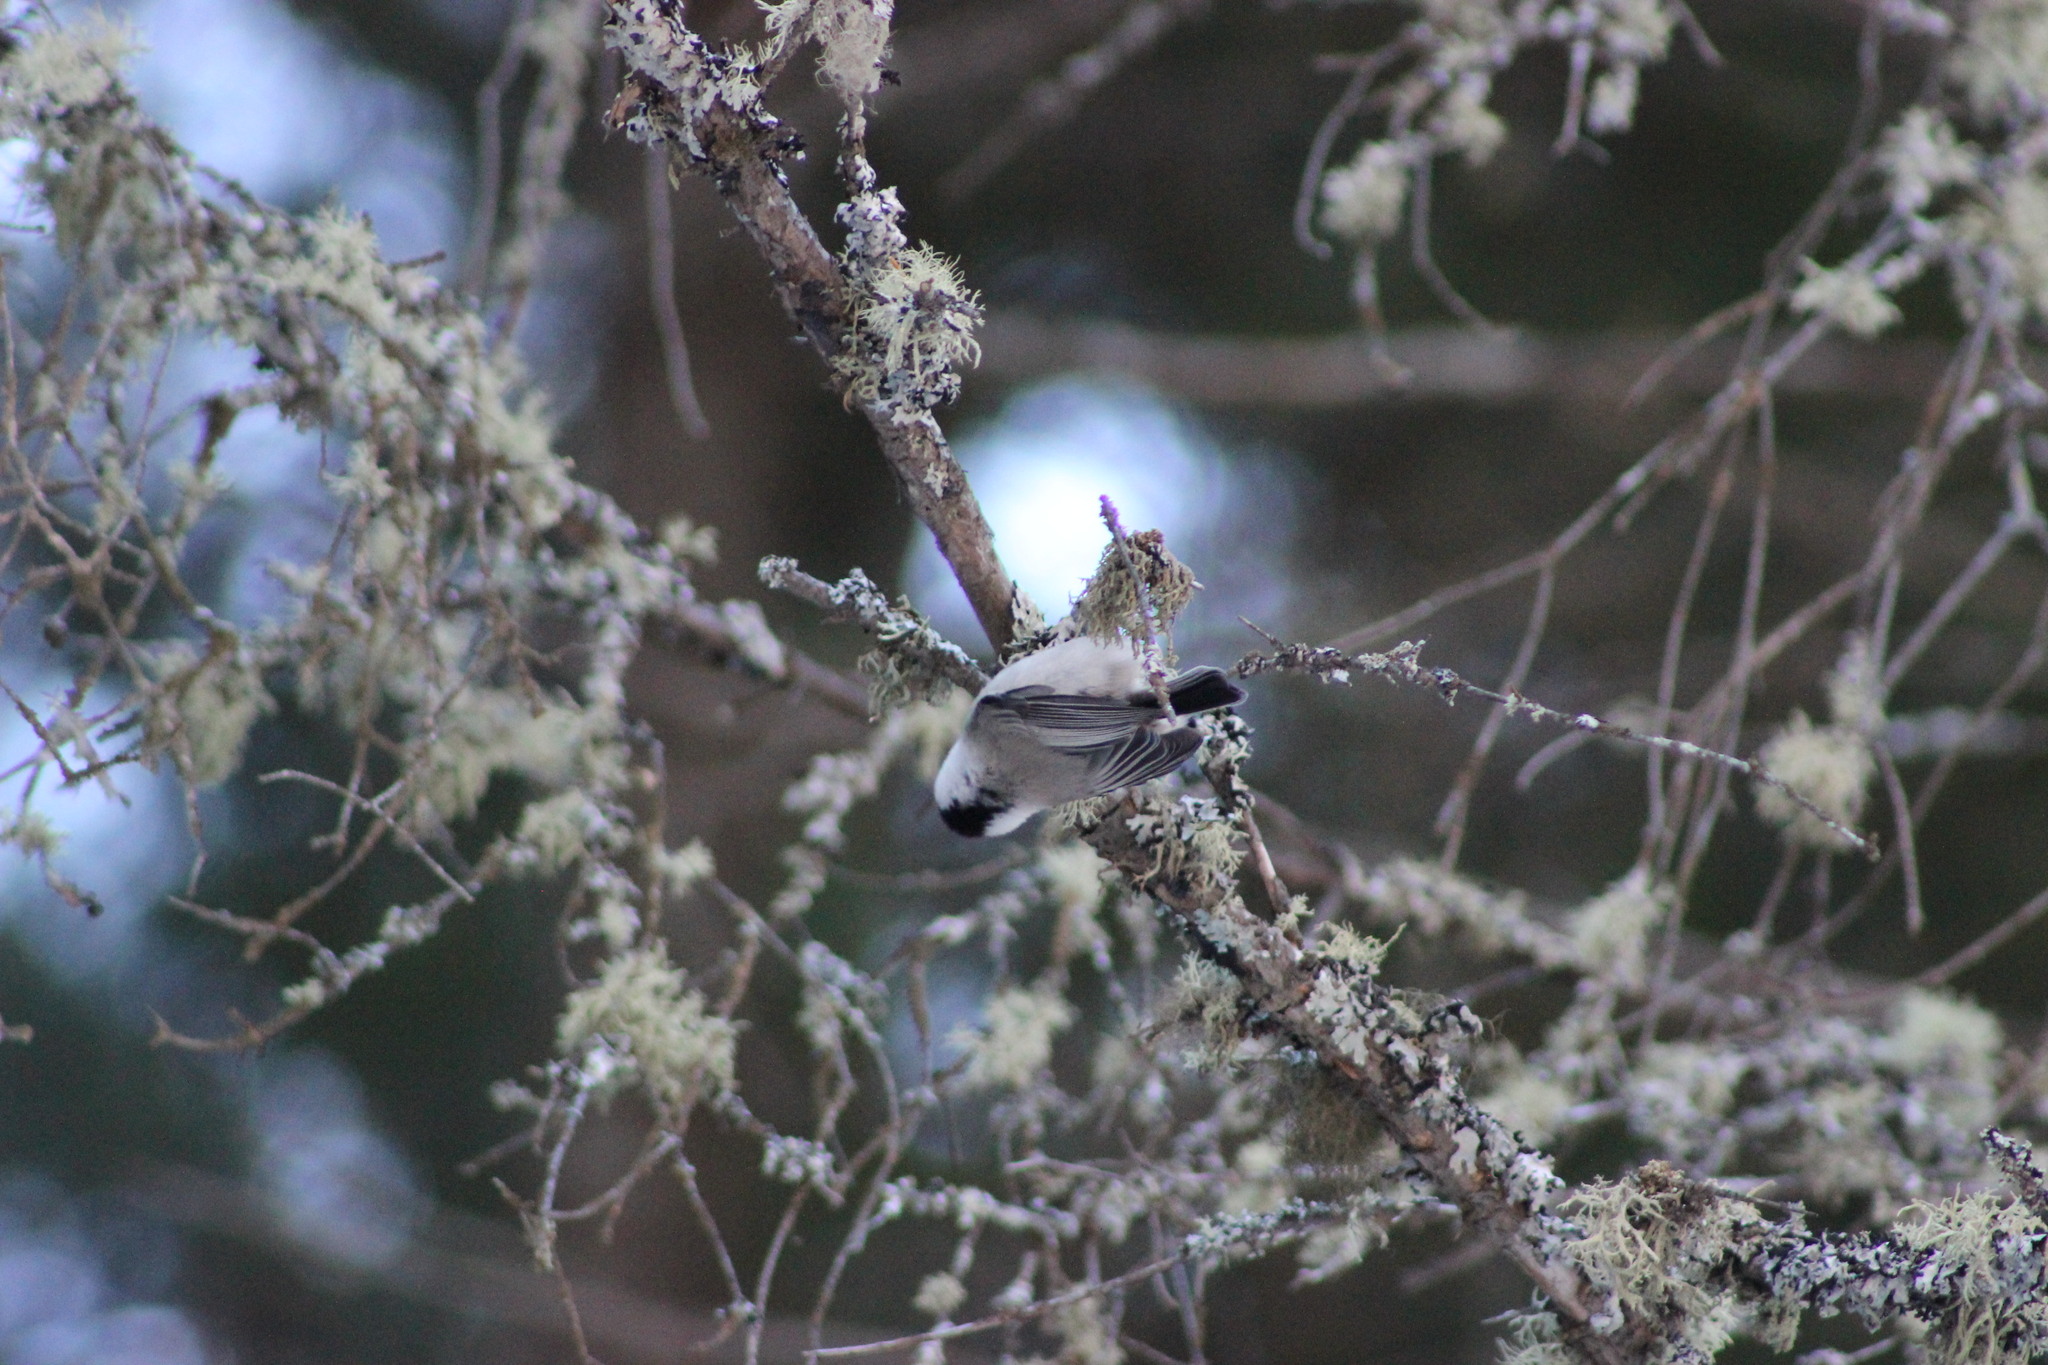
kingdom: Animalia
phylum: Chordata
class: Aves
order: Passeriformes
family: Paridae
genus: Poecile
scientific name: Poecile montanus
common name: Willow tit
